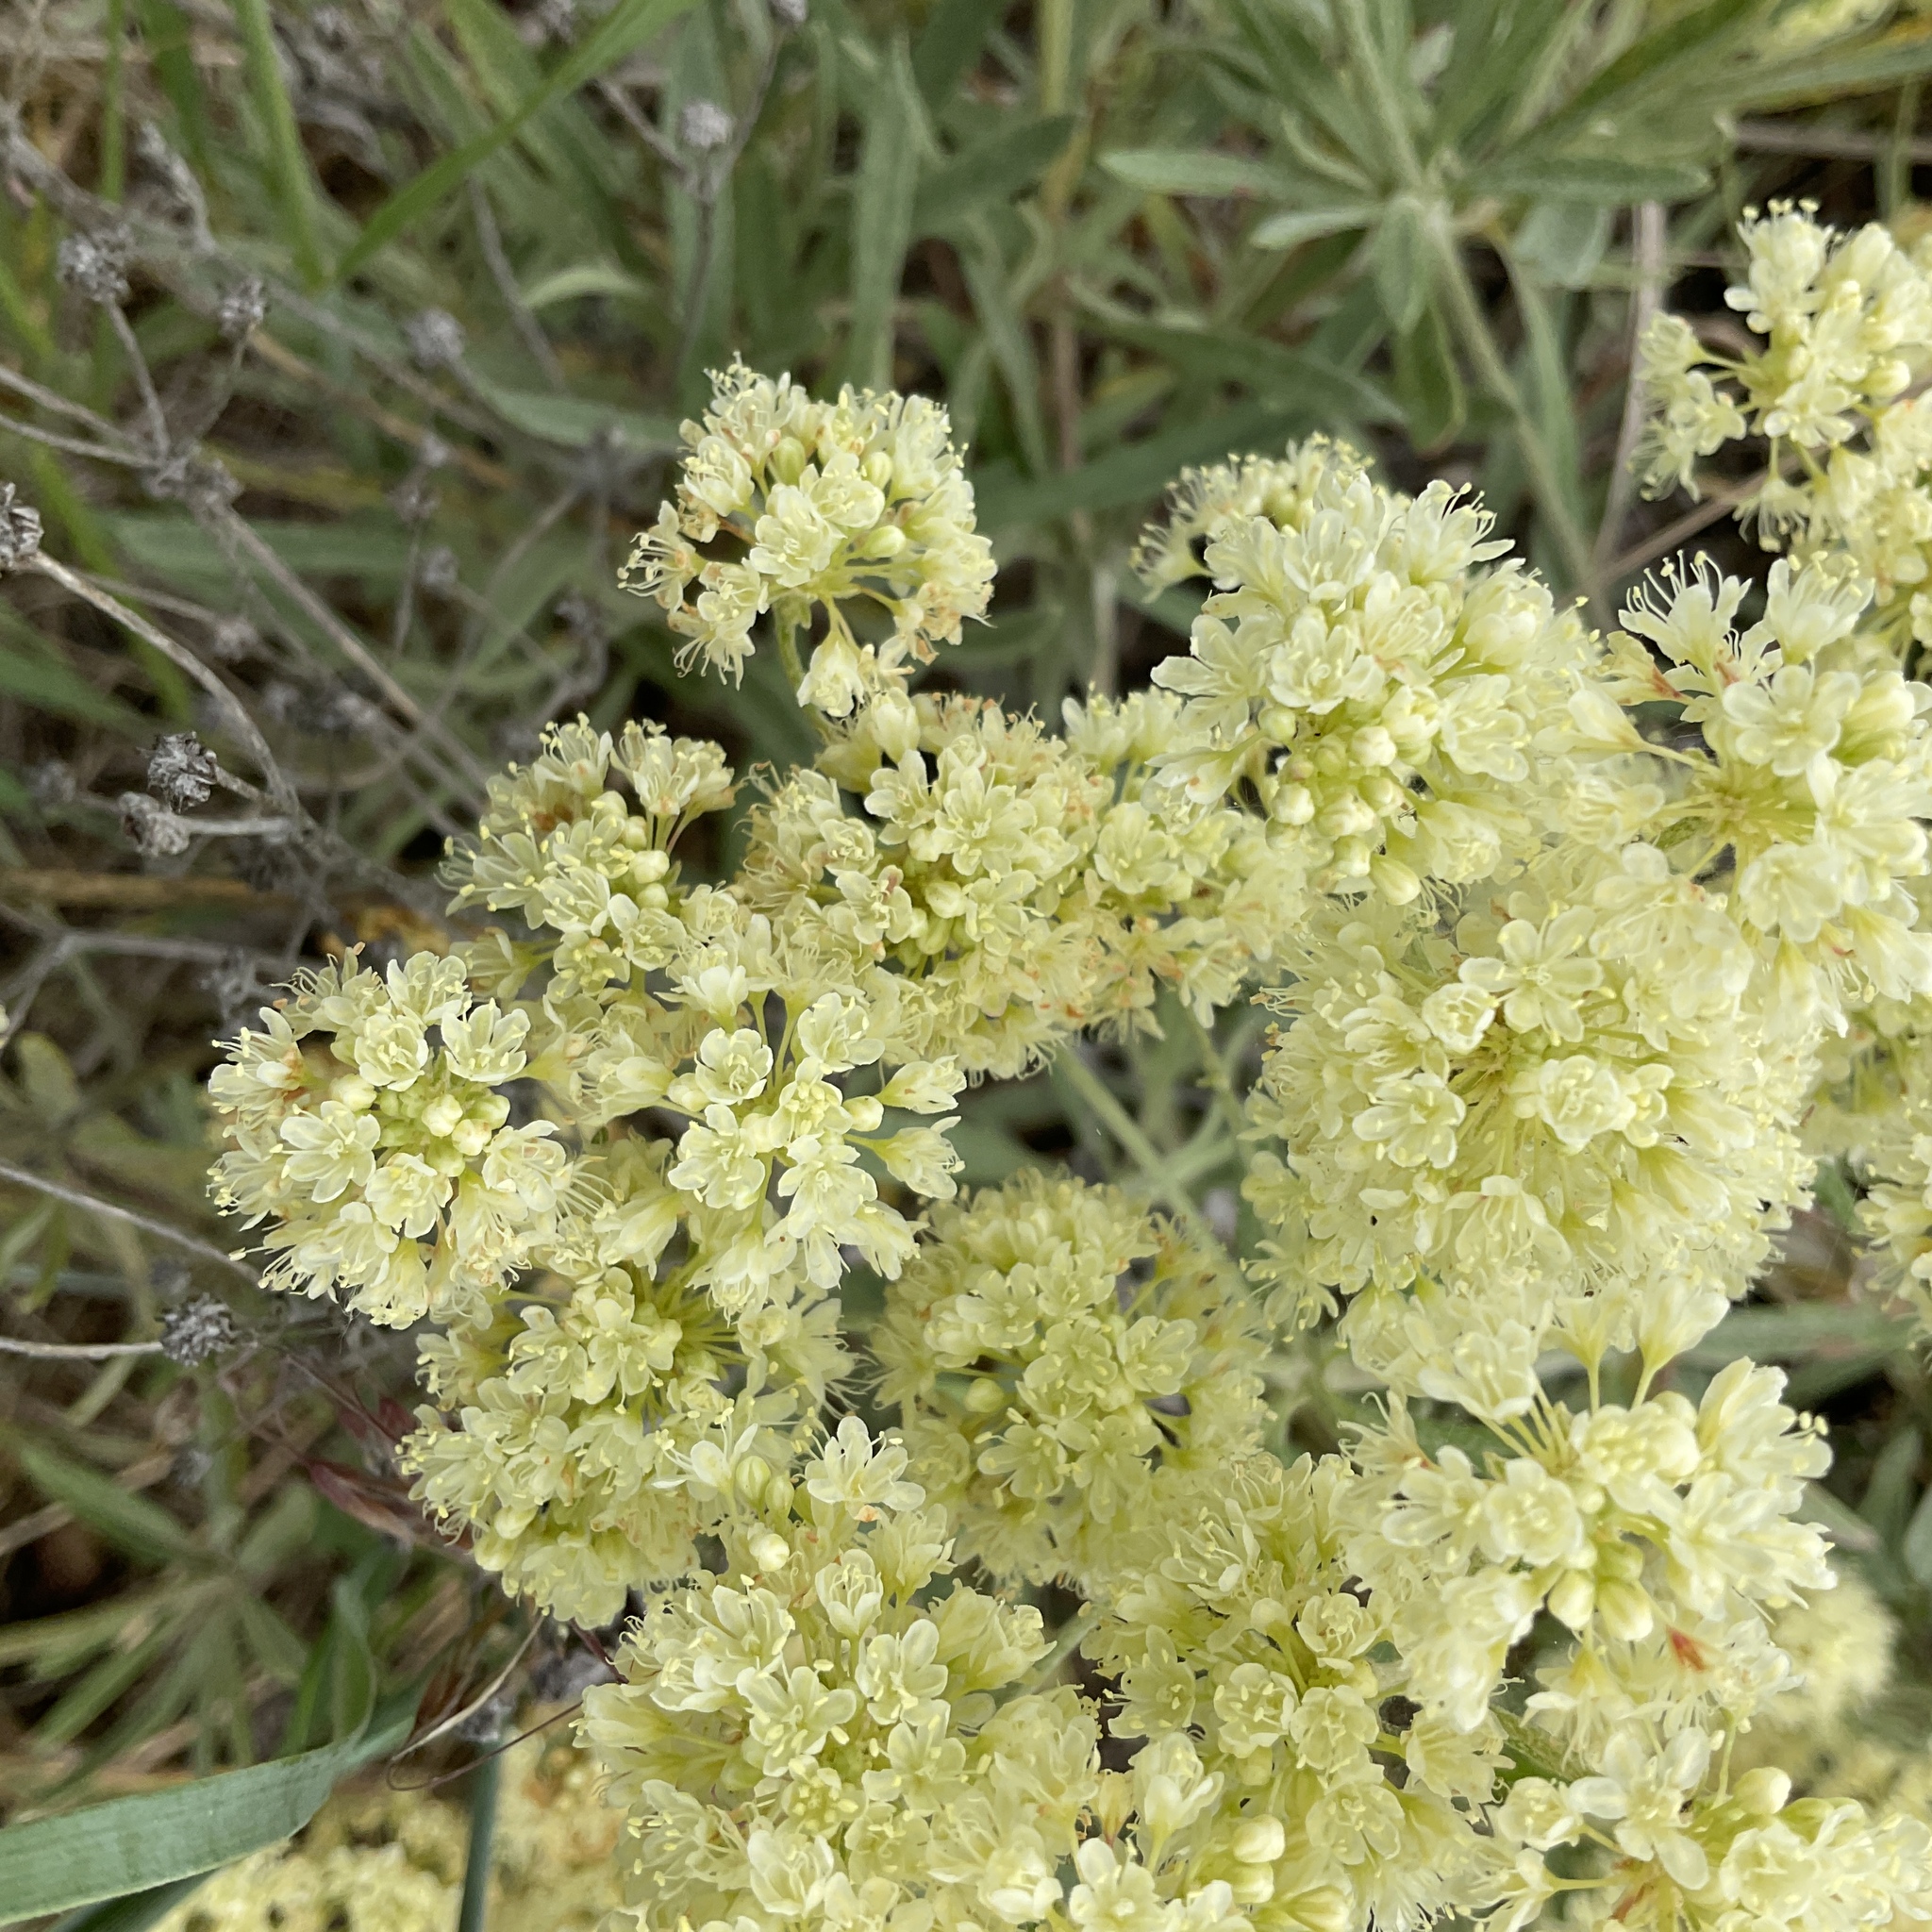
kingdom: Plantae
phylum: Tracheophyta
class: Magnoliopsida
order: Caryophyllales
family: Polygonaceae
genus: Eriogonum
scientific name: Eriogonum heracleoides
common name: Wyeth's buckwheat
